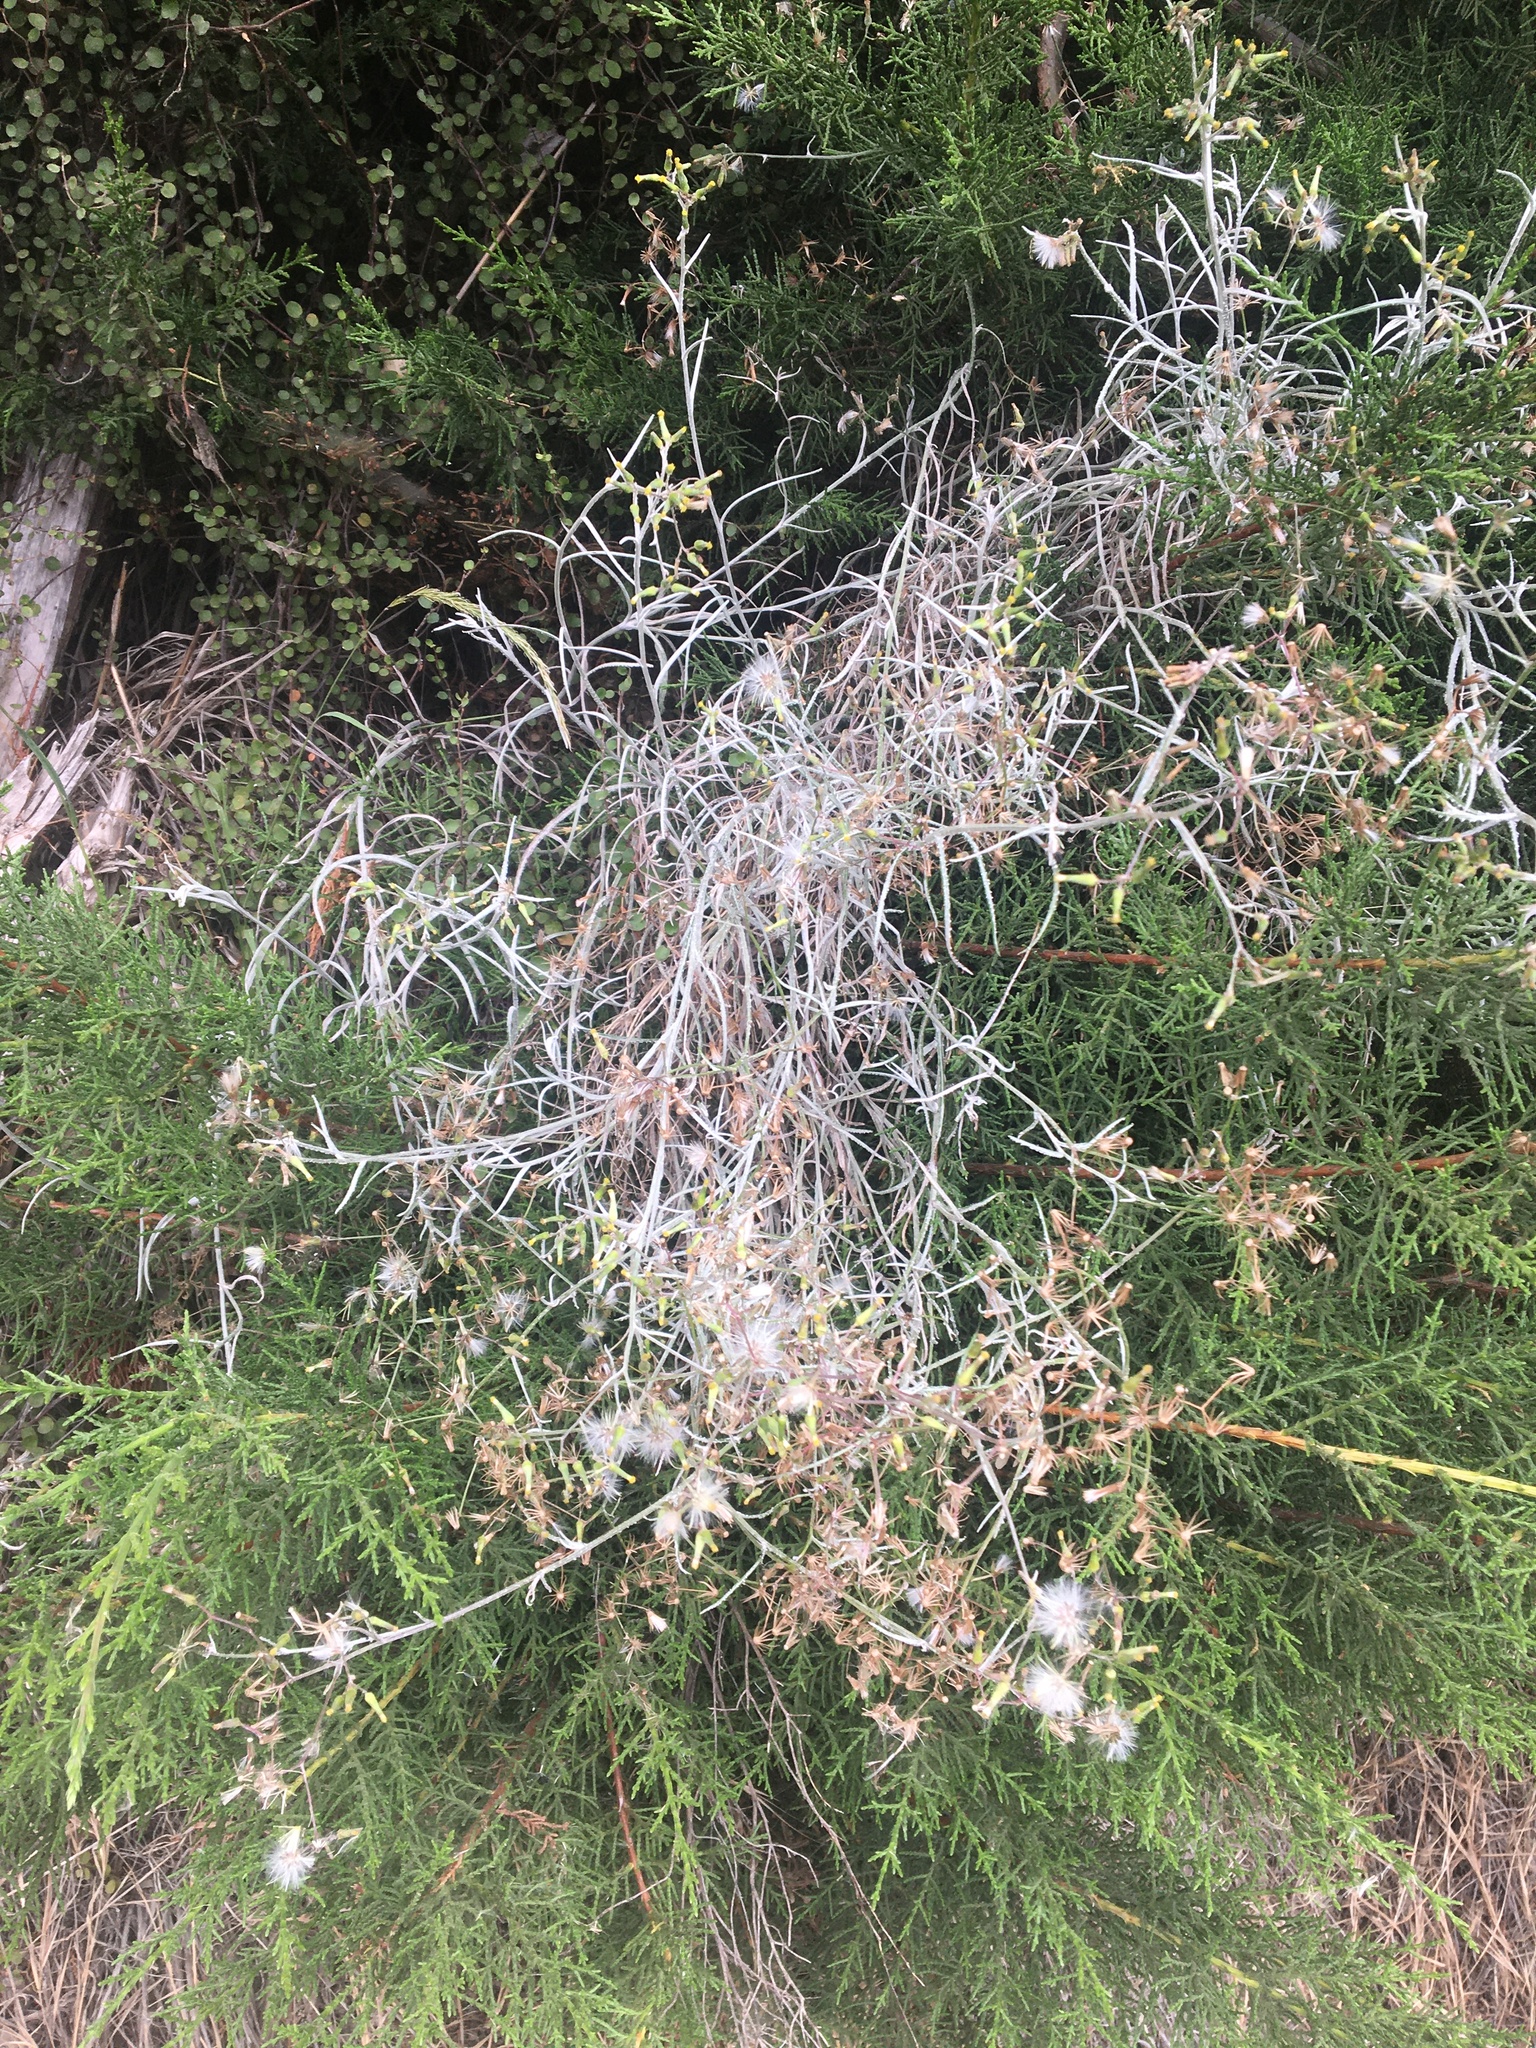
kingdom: Plantae
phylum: Tracheophyta
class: Magnoliopsida
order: Asterales
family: Asteraceae
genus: Senecio
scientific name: Senecio quadridentatus
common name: Cotton fireweed
